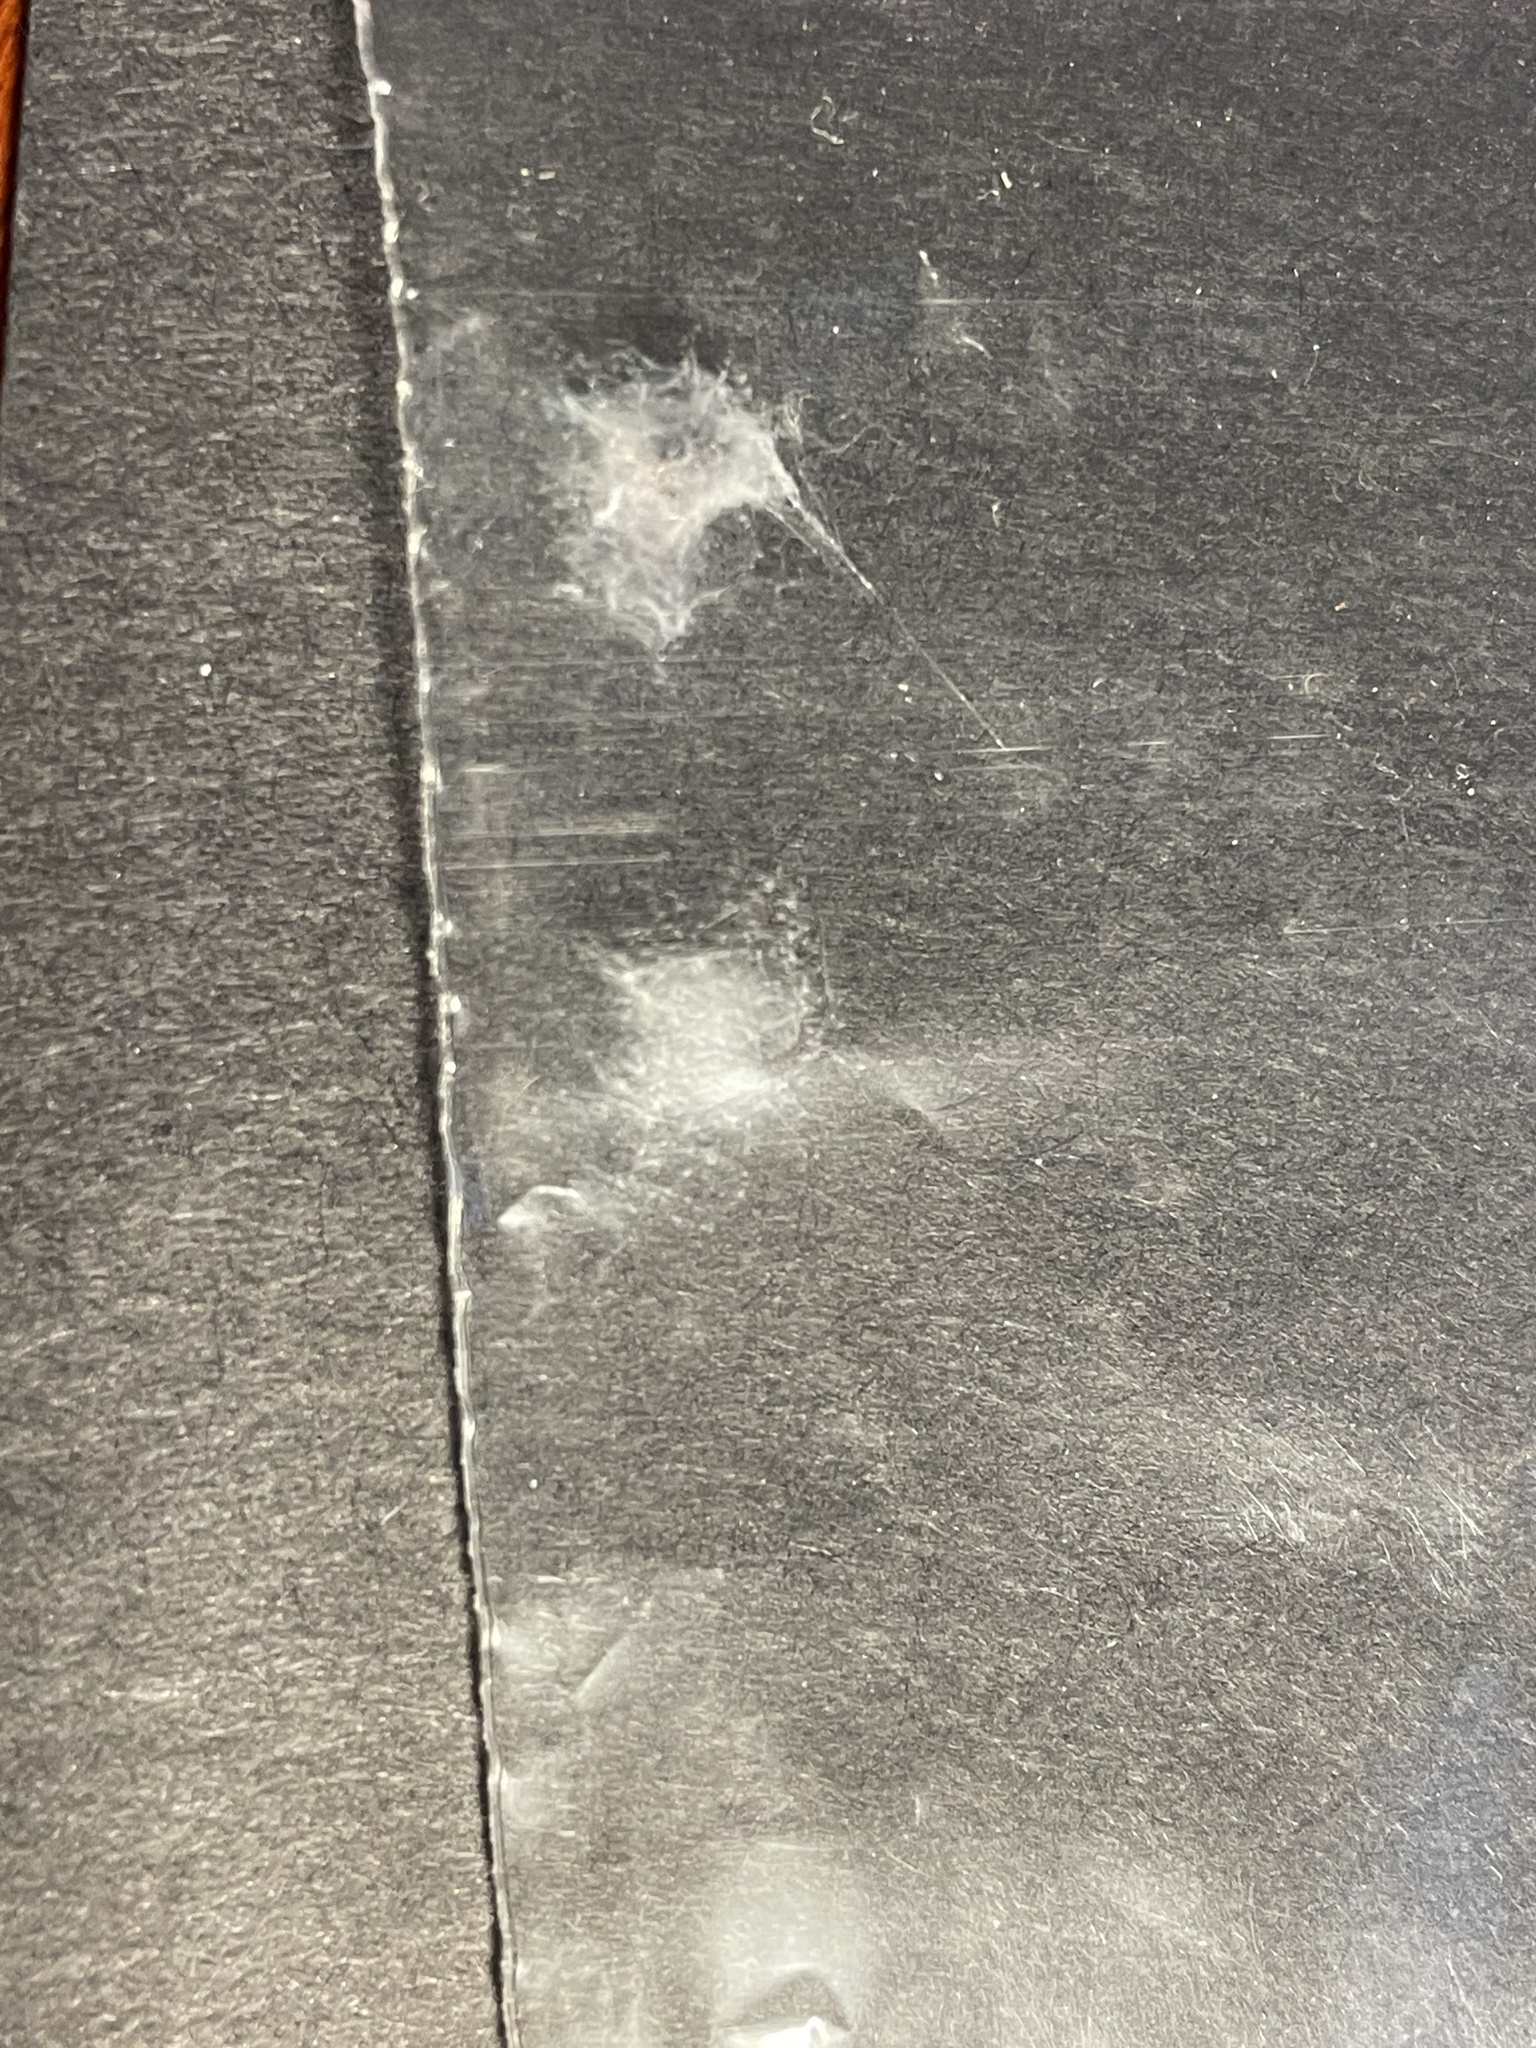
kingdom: Animalia
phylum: Arthropoda
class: Arachnida
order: Araneae
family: Salticidae
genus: Talavera
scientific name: Talavera minuta
